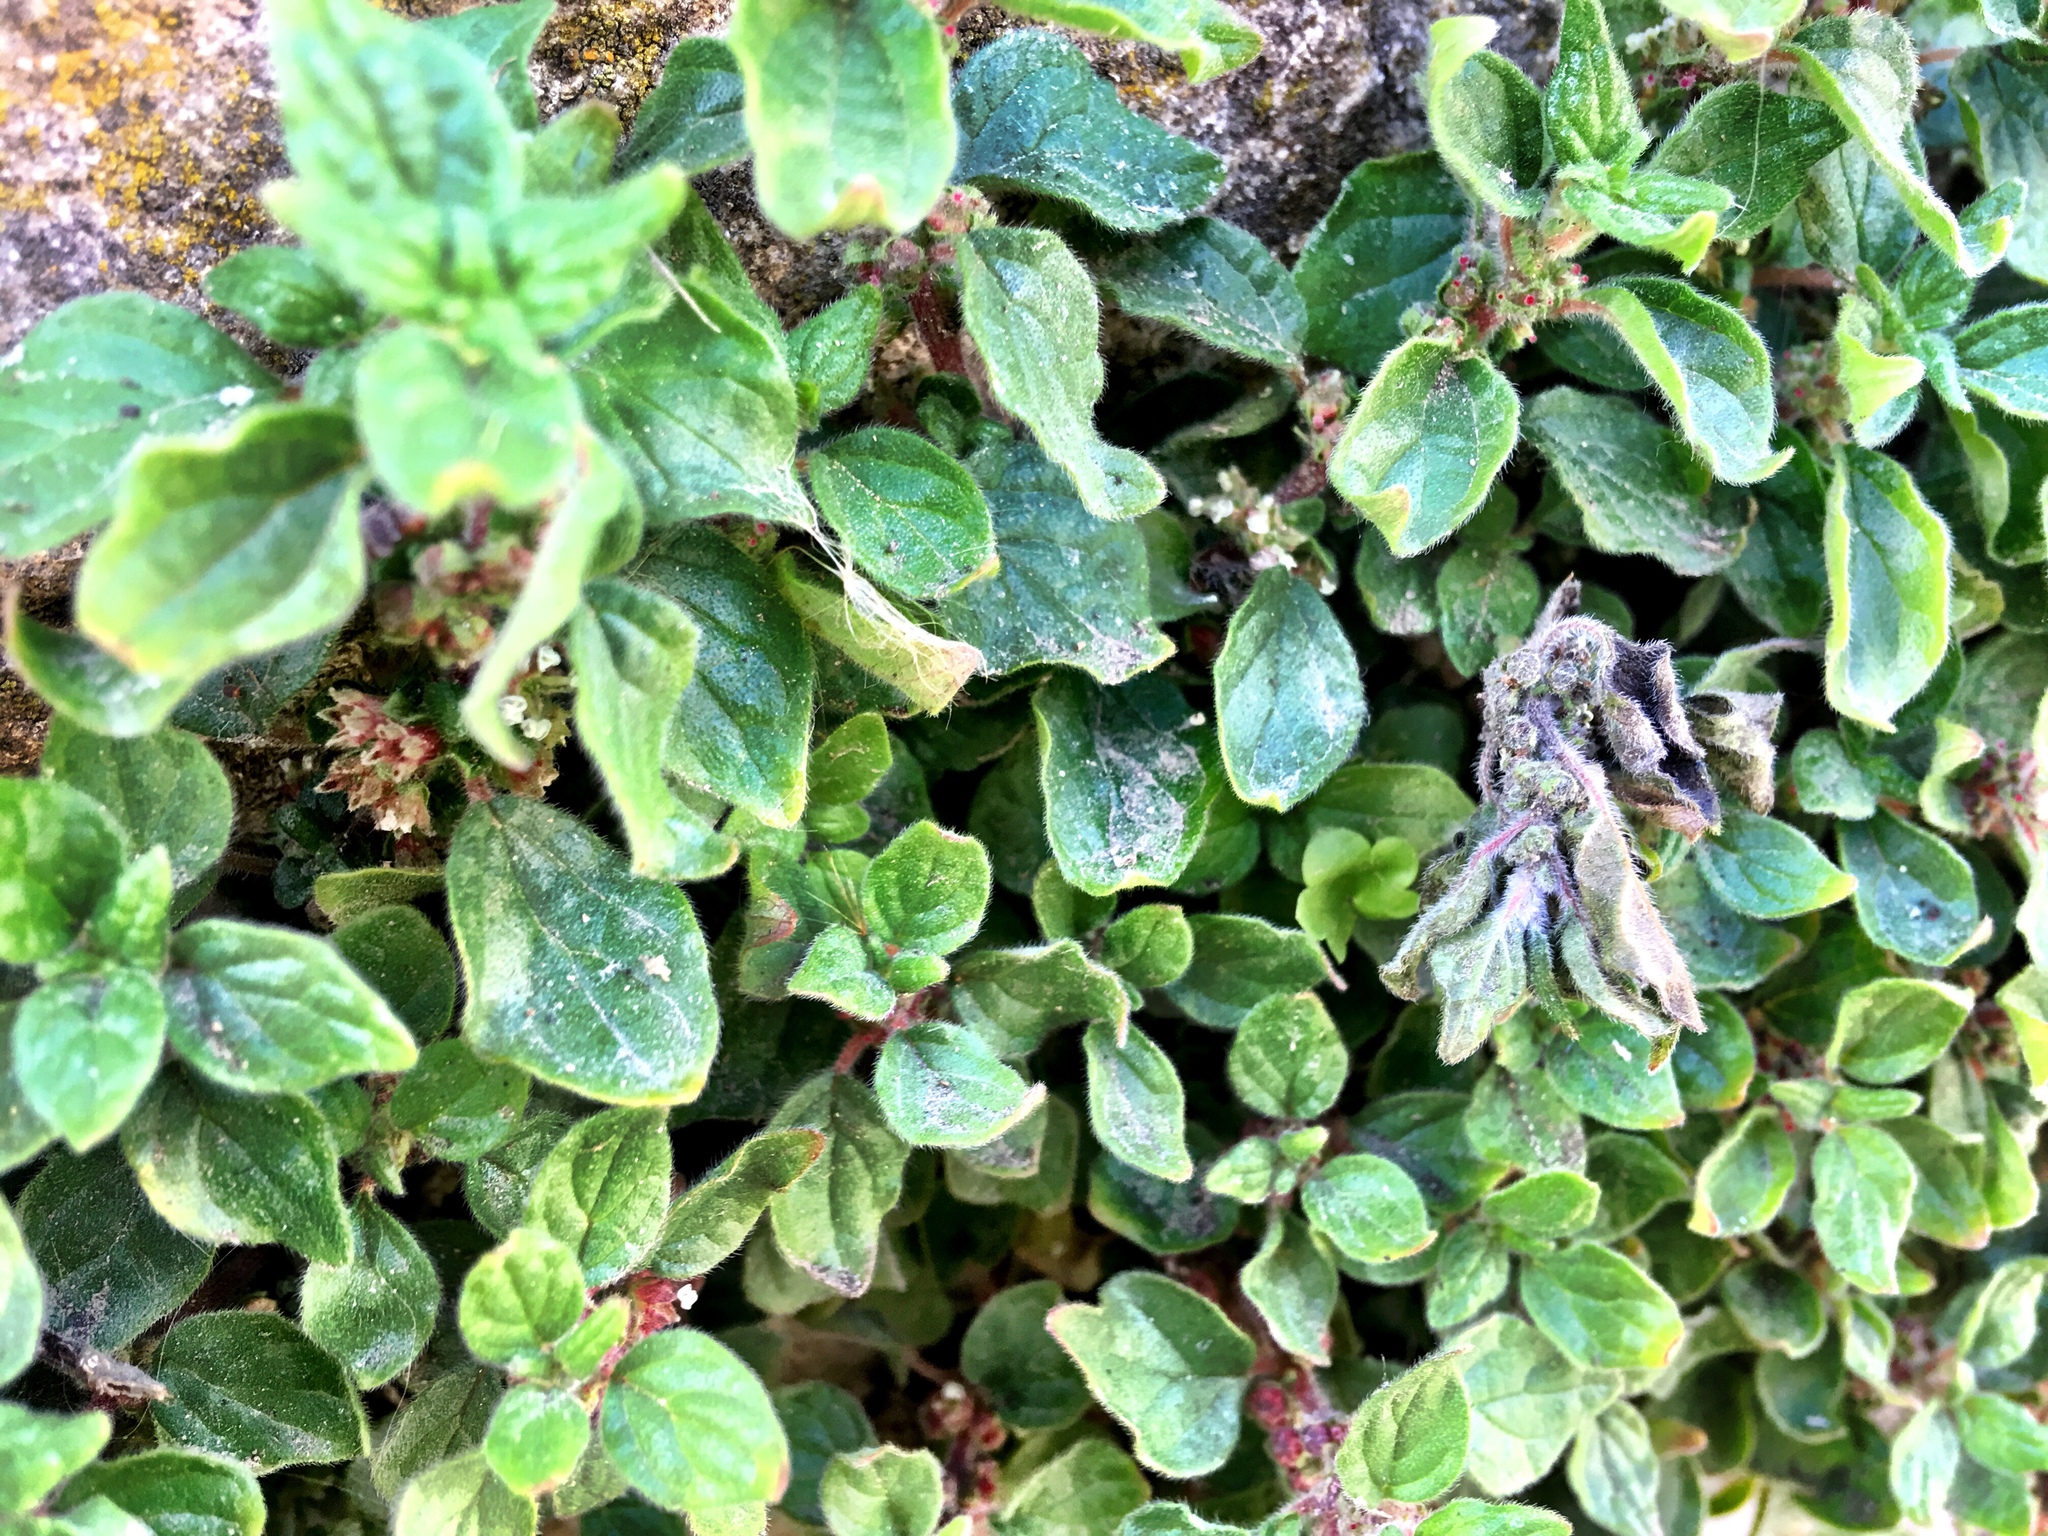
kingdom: Plantae
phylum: Tracheophyta
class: Magnoliopsida
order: Rosales
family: Urticaceae
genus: Parietaria
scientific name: Parietaria judaica
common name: Pellitory-of-the-wall
